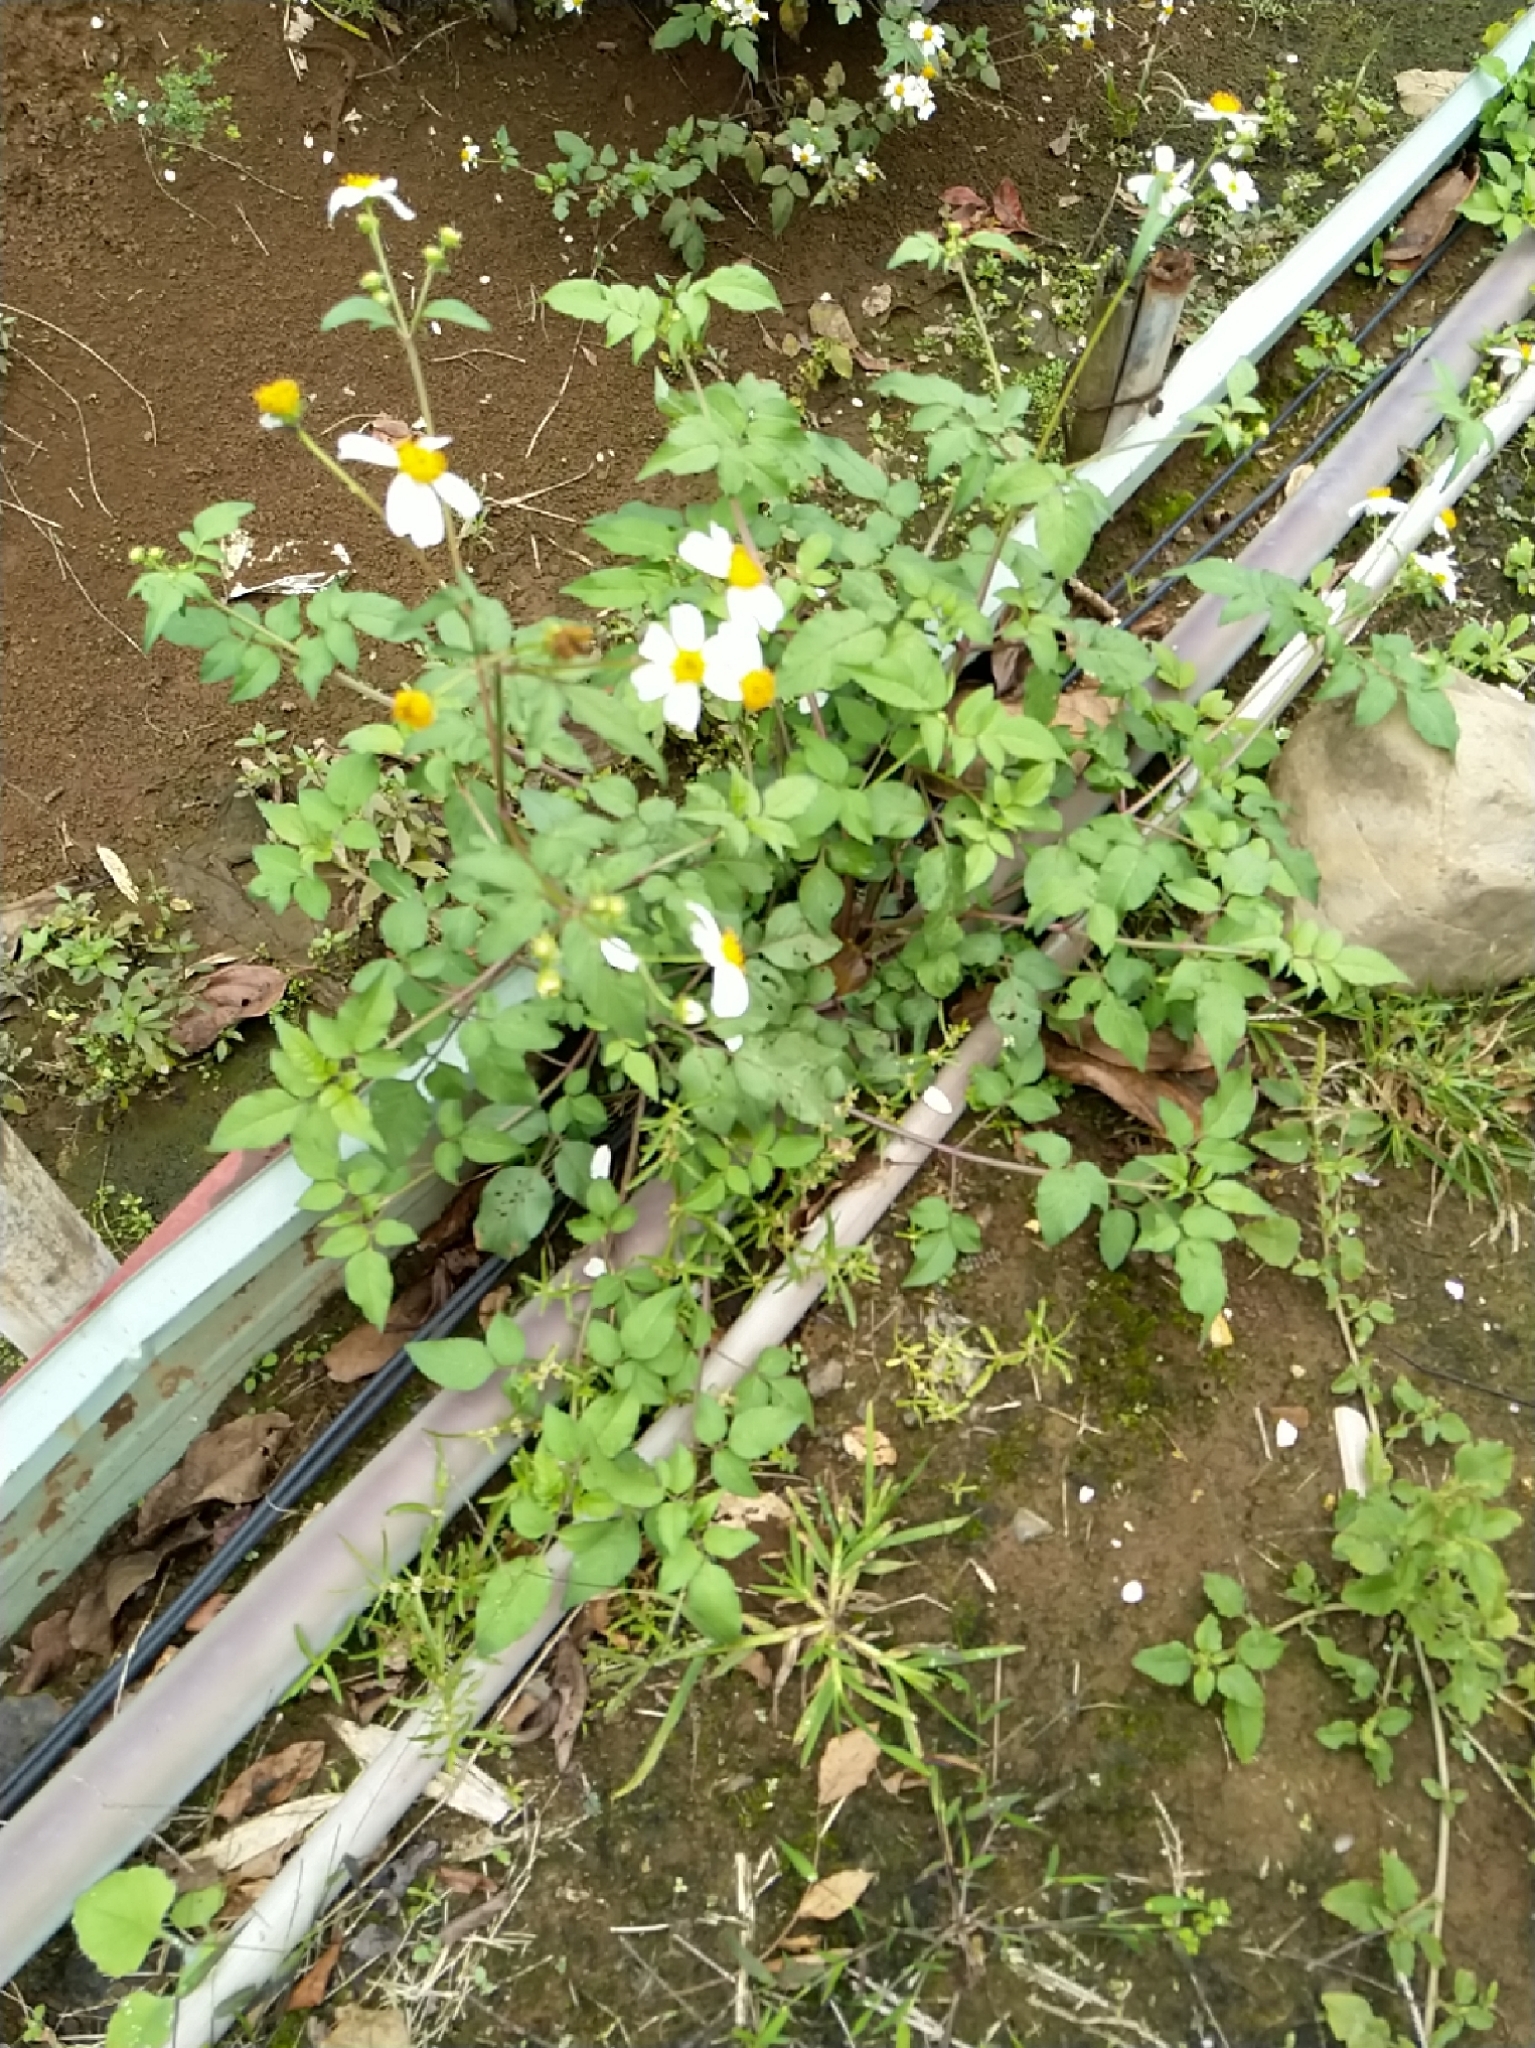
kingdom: Plantae
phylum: Tracheophyta
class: Magnoliopsida
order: Asterales
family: Asteraceae
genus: Bidens
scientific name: Bidens alba
